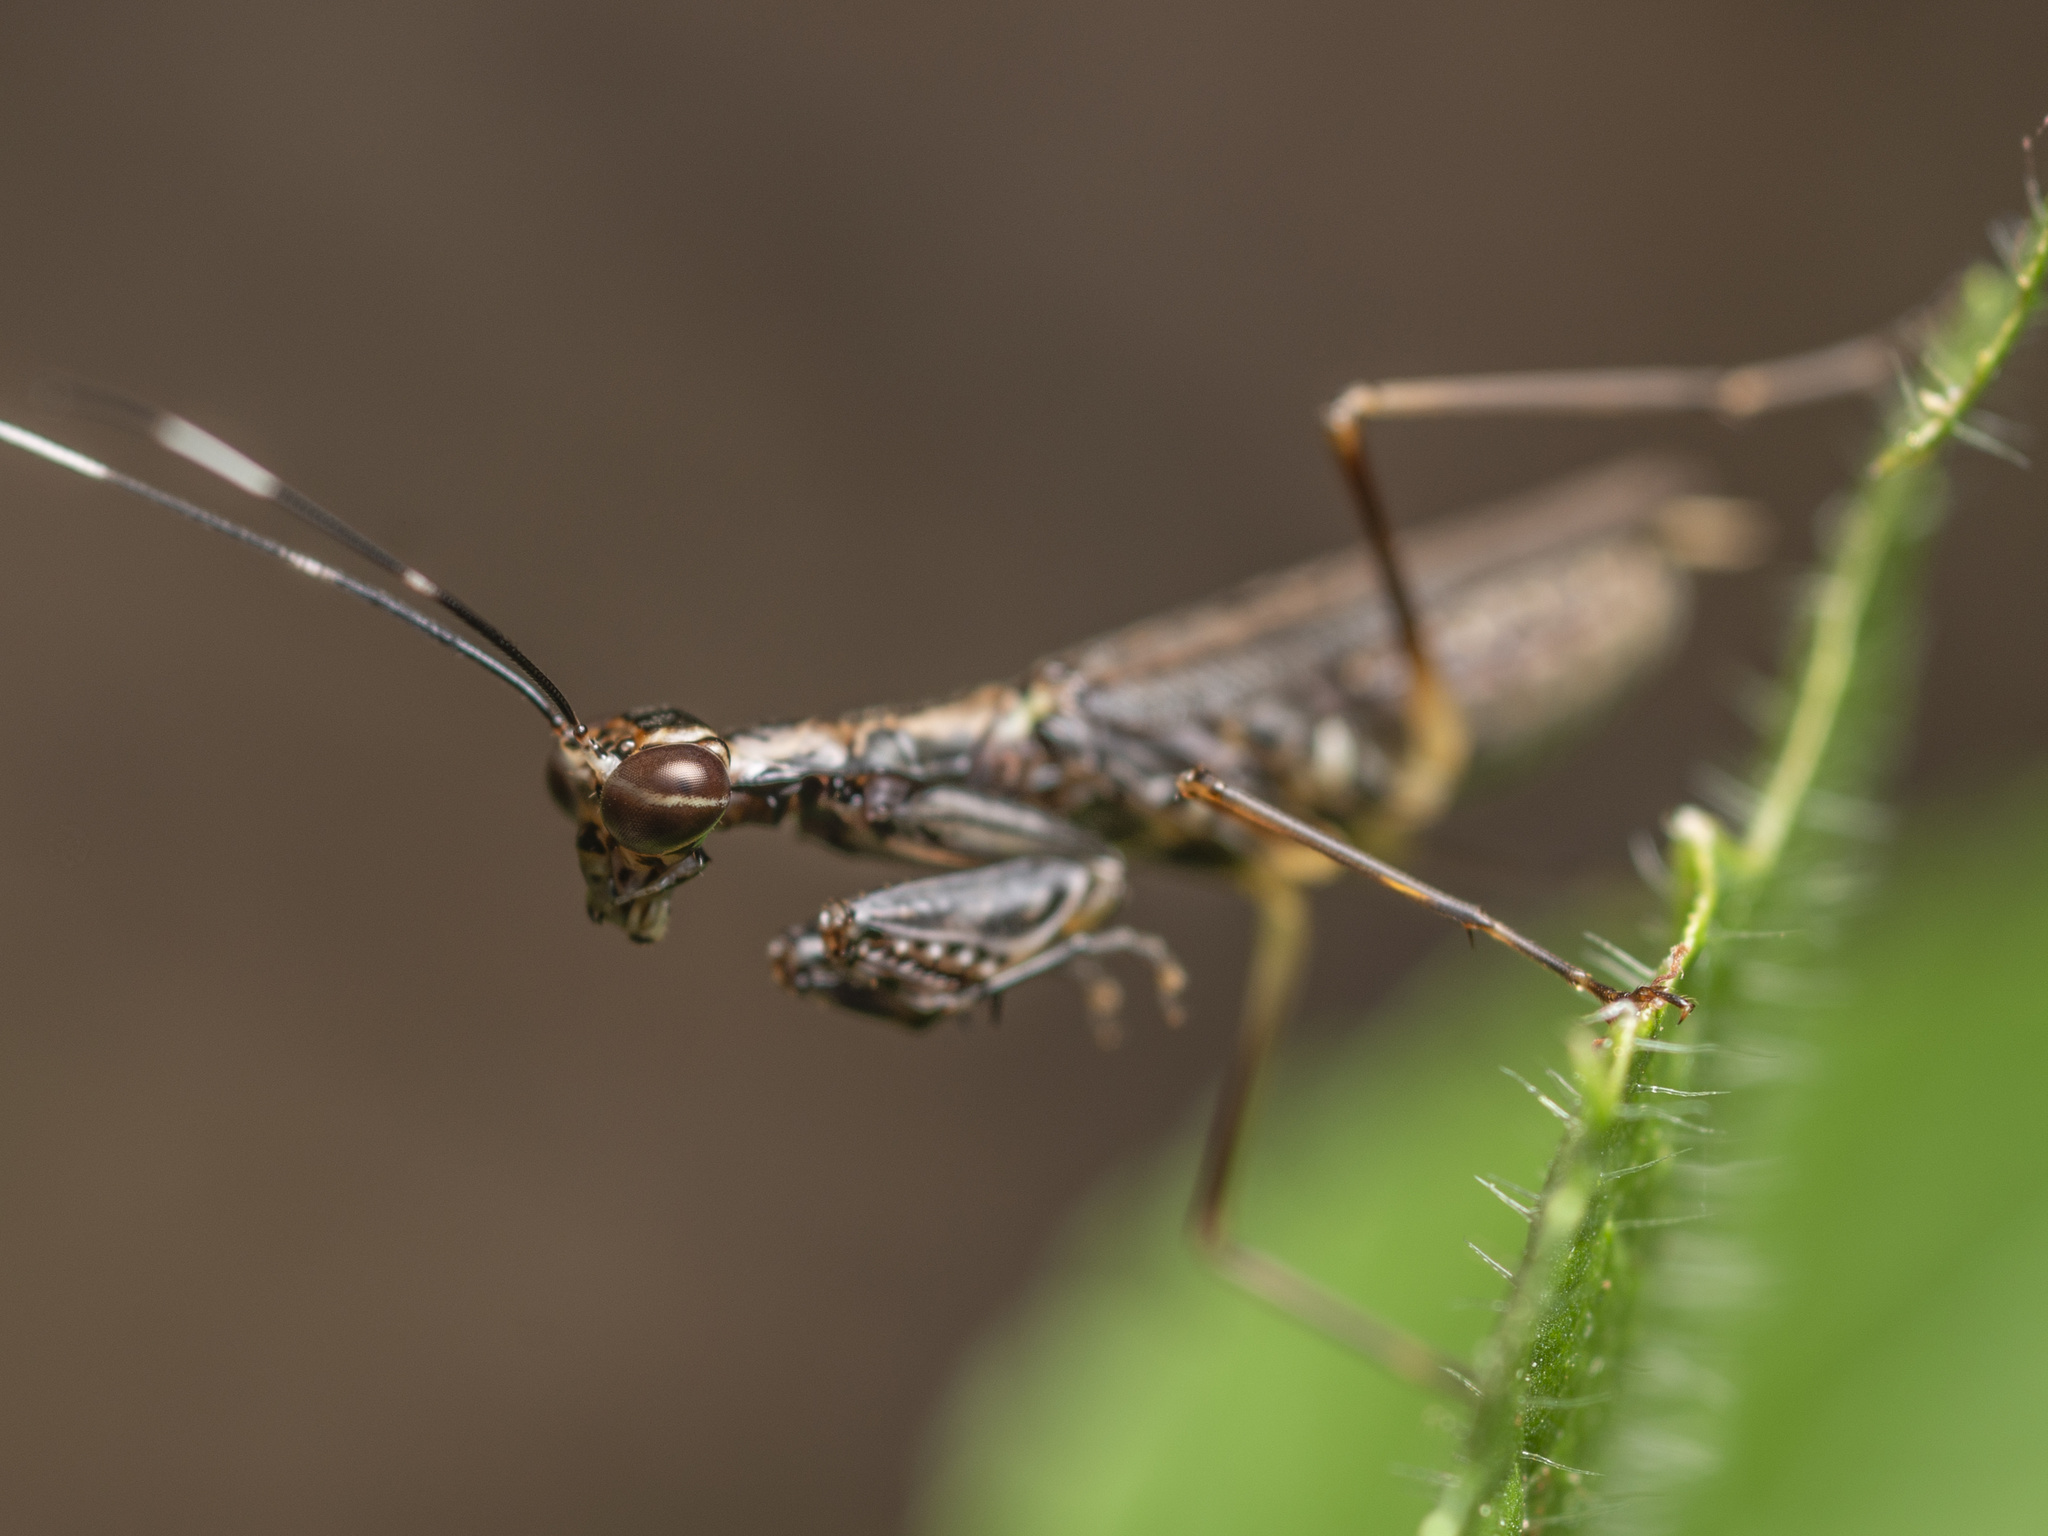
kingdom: Animalia
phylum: Arthropoda
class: Insecta
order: Mantodea
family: Gonypetidae
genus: Spilomantis
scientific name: Spilomantis occipitalis
